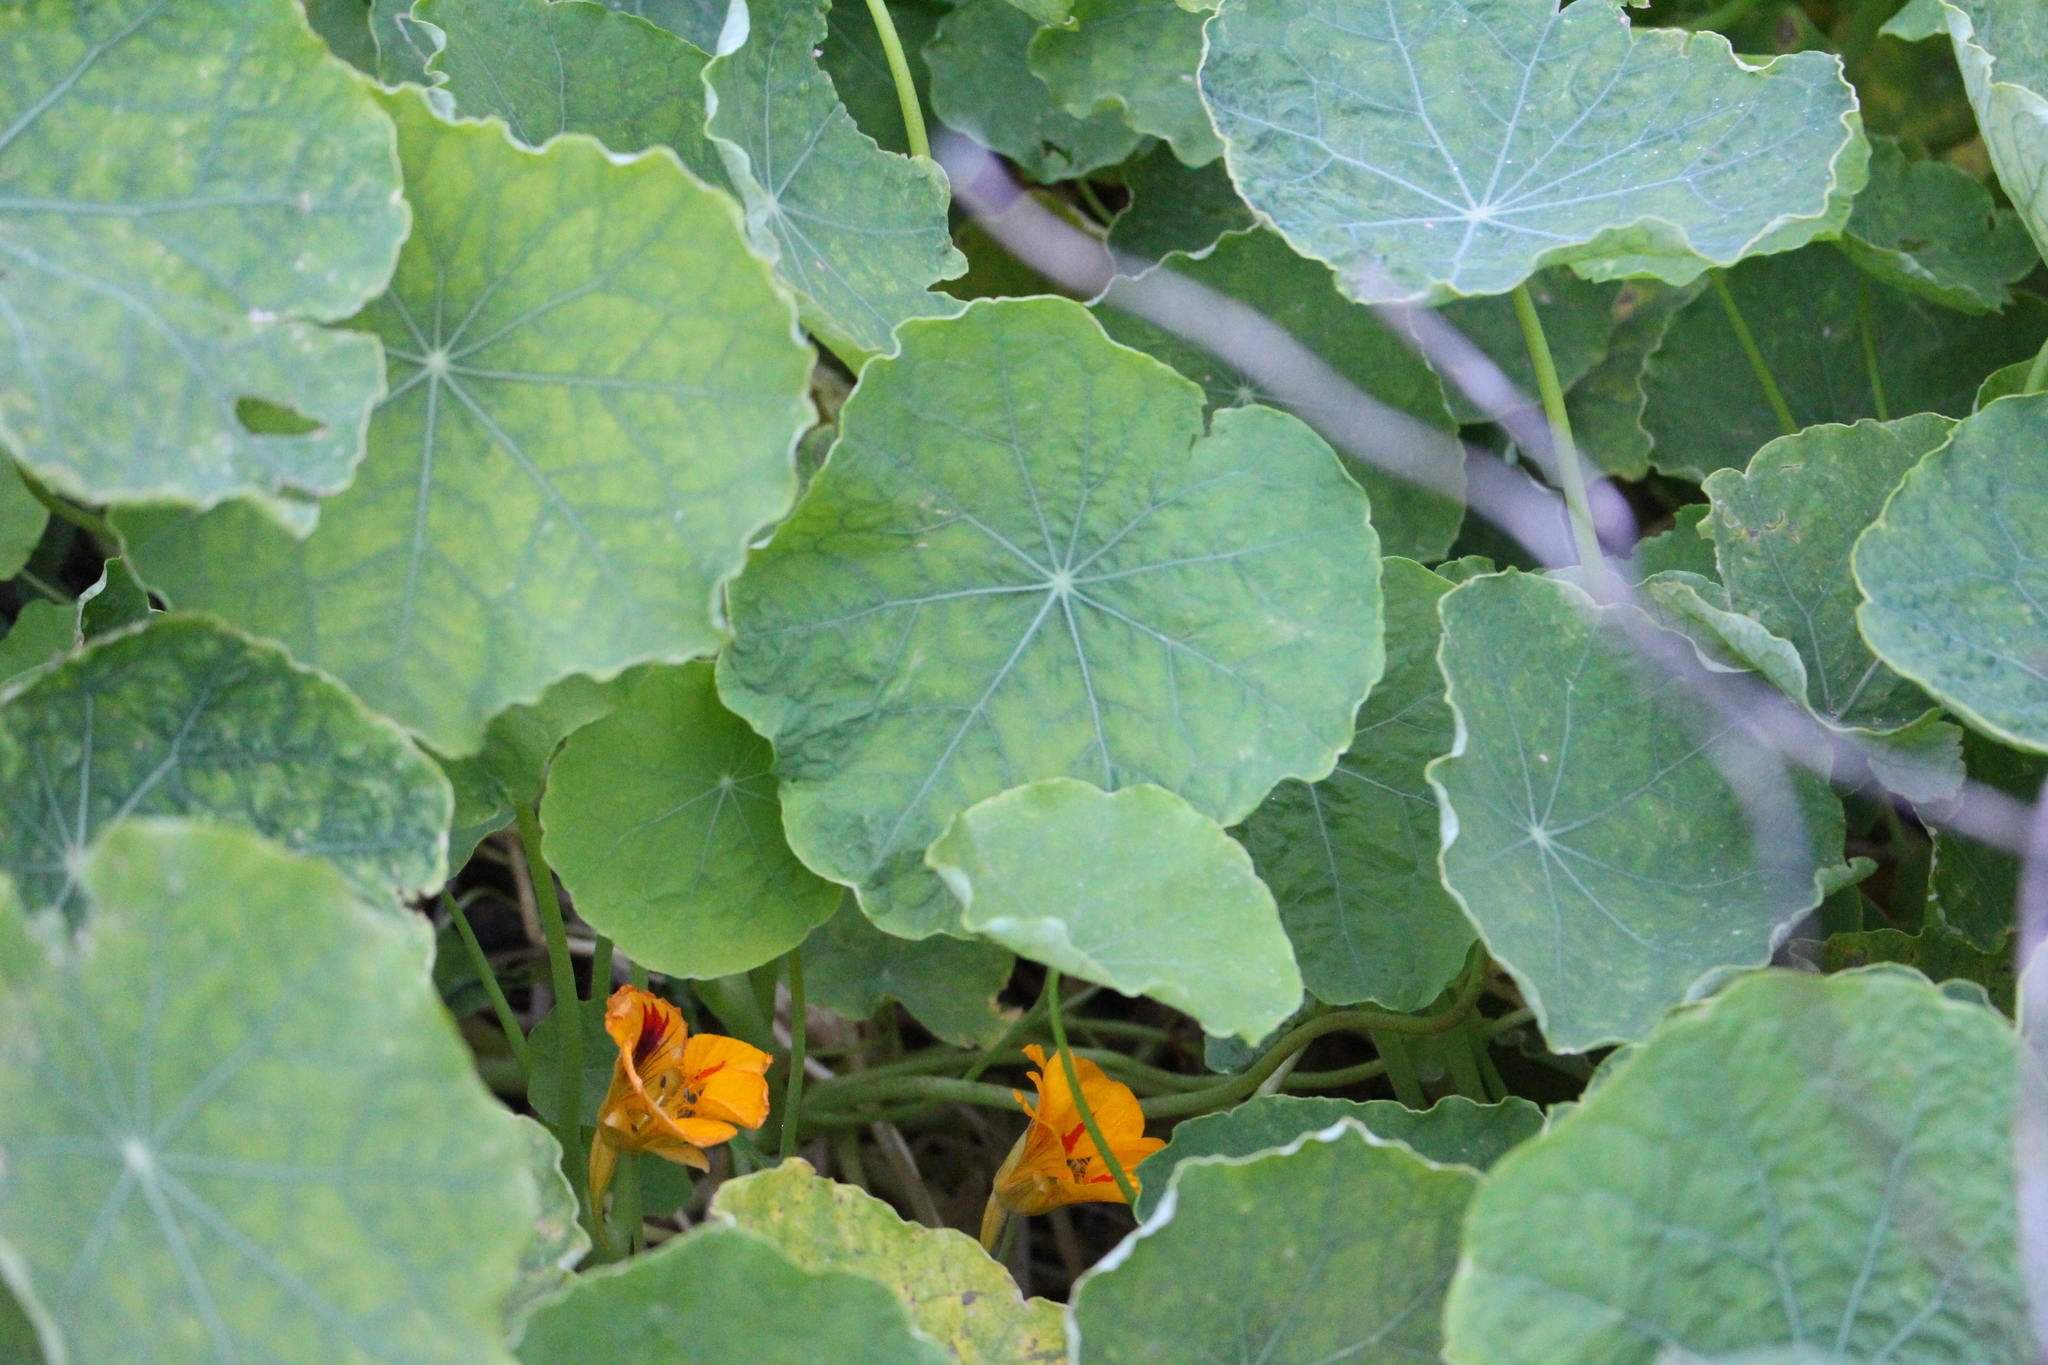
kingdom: Plantae
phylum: Tracheophyta
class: Magnoliopsida
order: Brassicales
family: Tropaeolaceae
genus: Tropaeolum
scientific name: Tropaeolum majus
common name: Nasturtium
